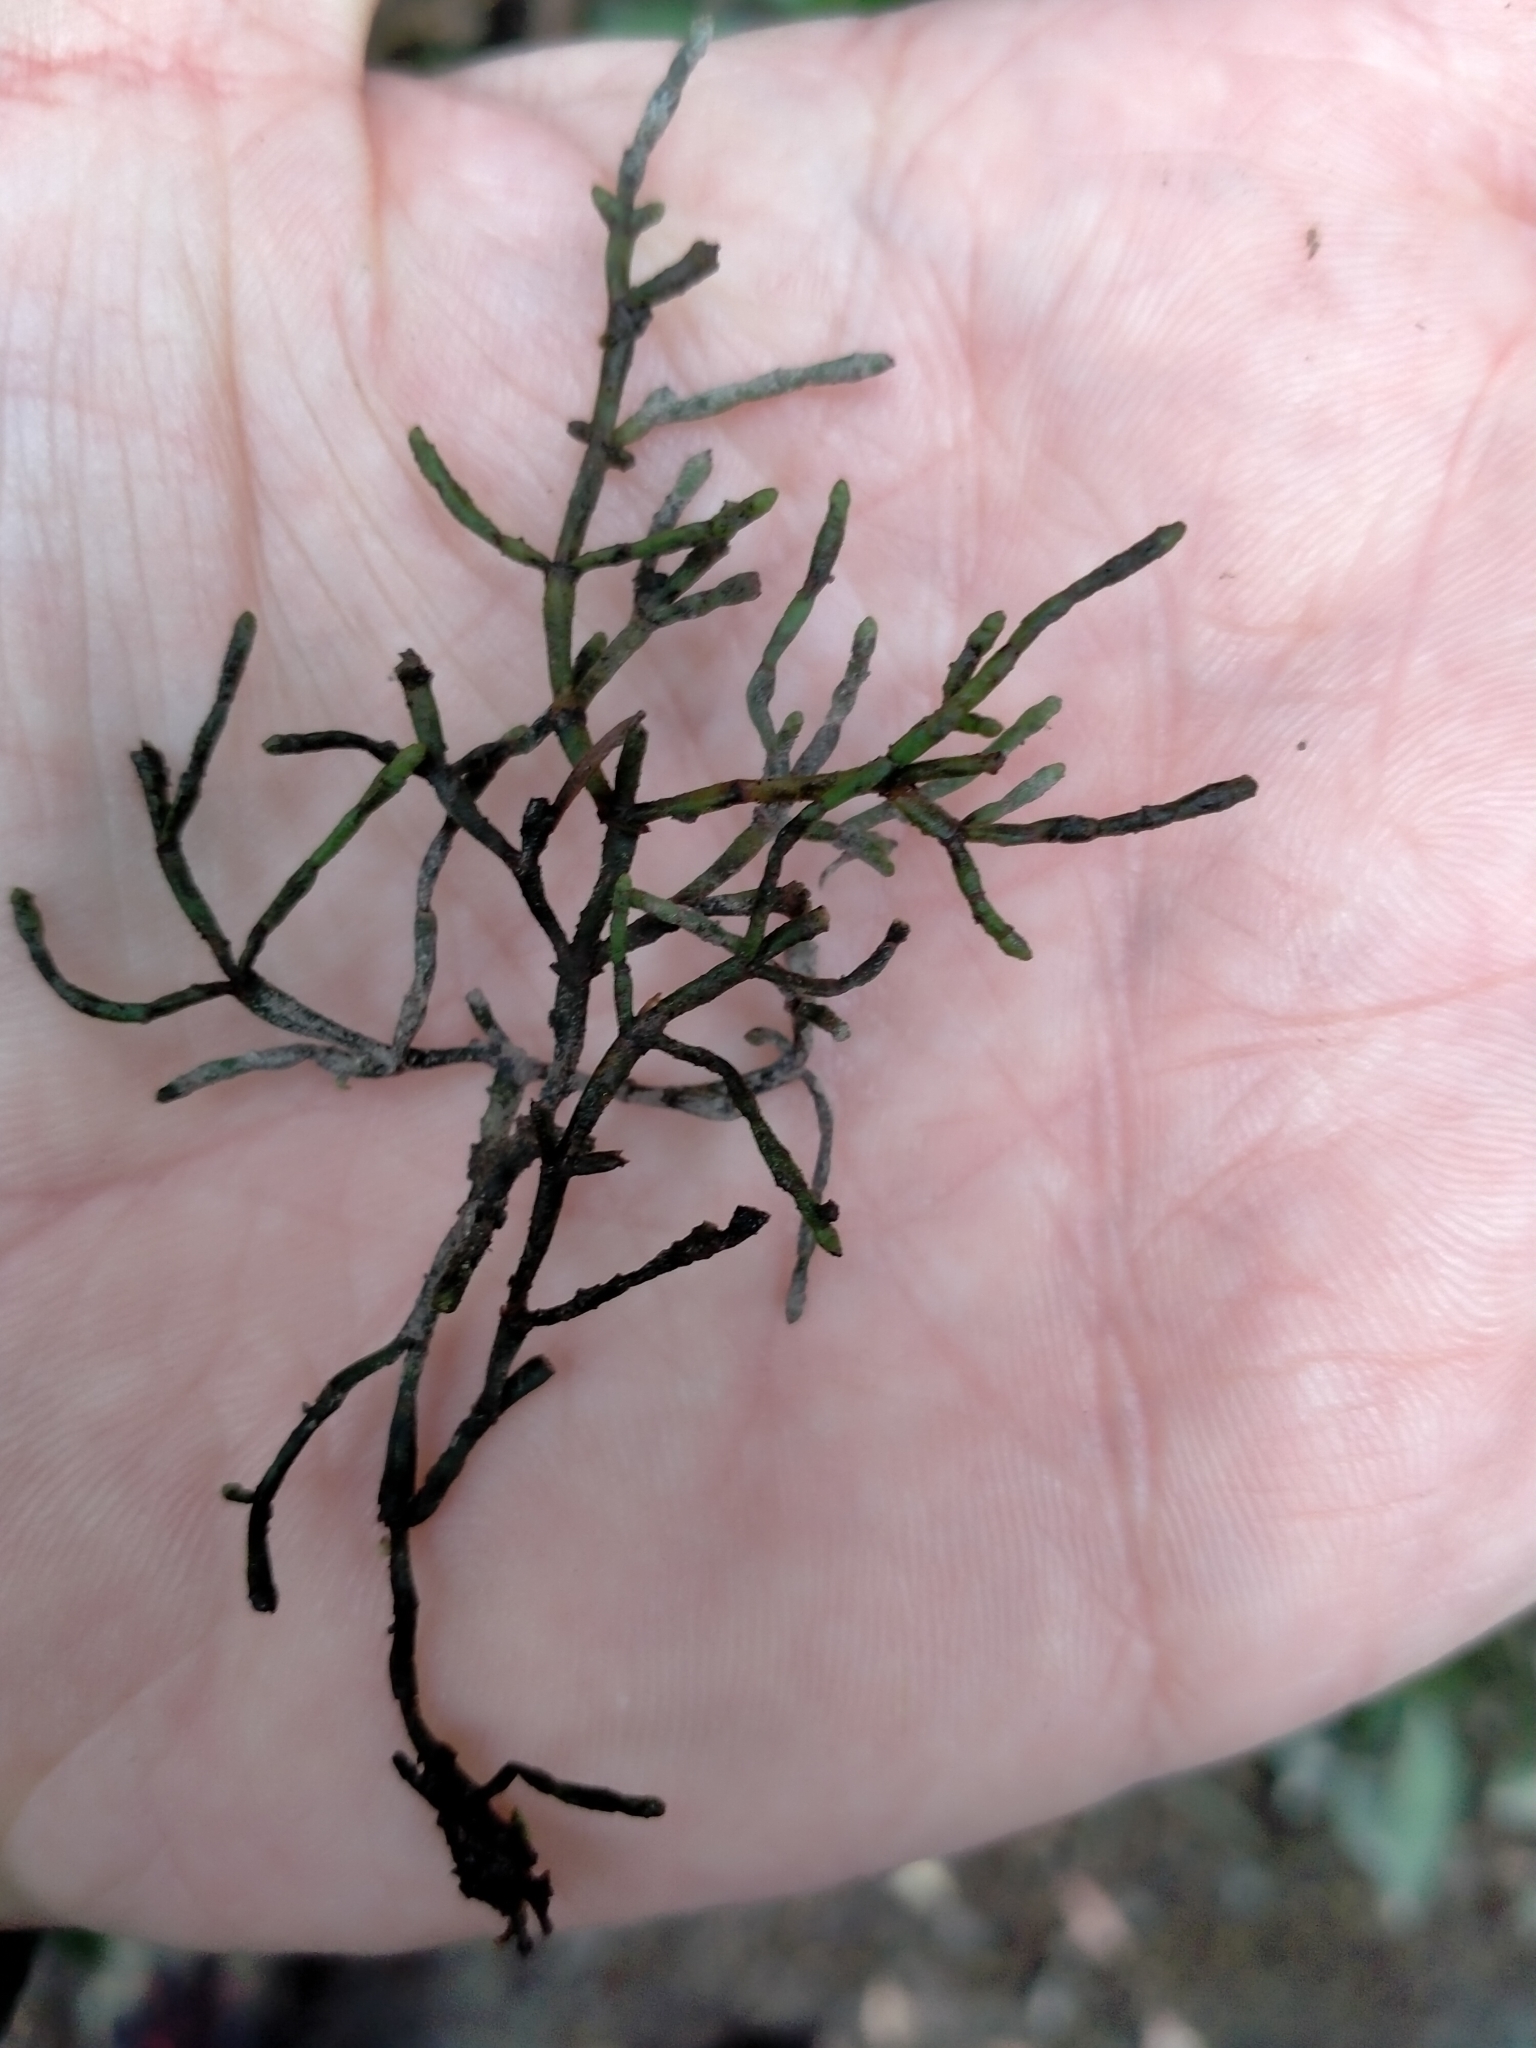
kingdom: Plantae
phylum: Tracheophyta
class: Magnoliopsida
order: Santalales
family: Viscaceae
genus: Korthalsella
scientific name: Korthalsella salicornioides
